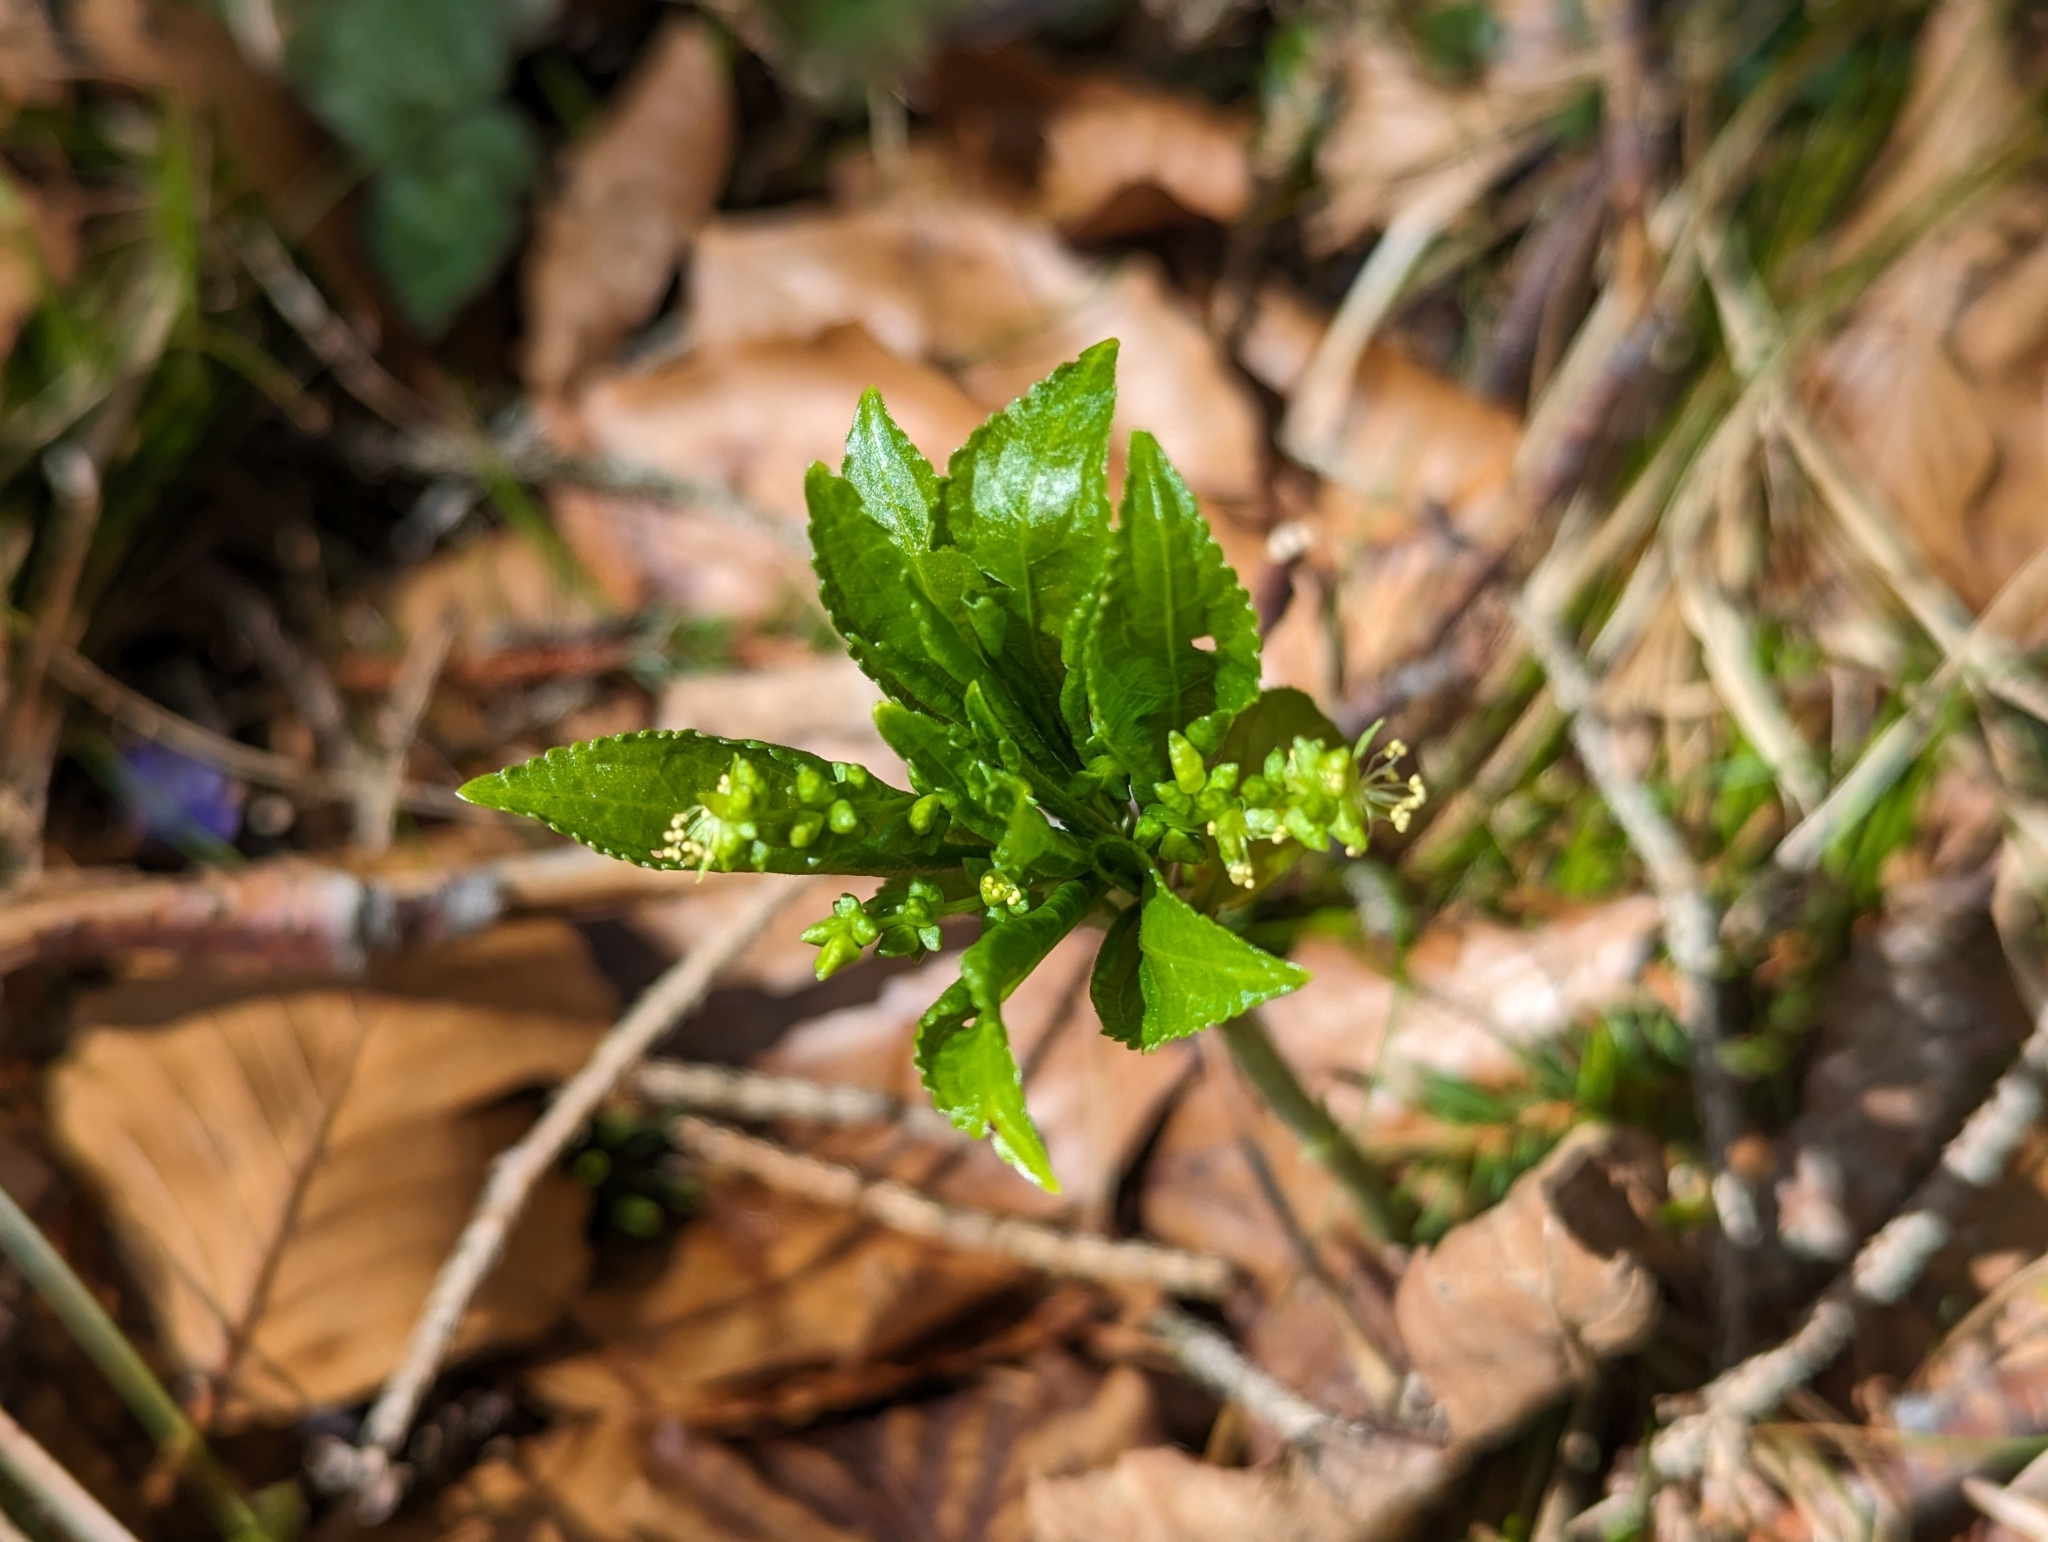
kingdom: Plantae
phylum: Tracheophyta
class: Magnoliopsida
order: Malpighiales
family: Euphorbiaceae
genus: Mercurialis
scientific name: Mercurialis perennis
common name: Dog mercury
